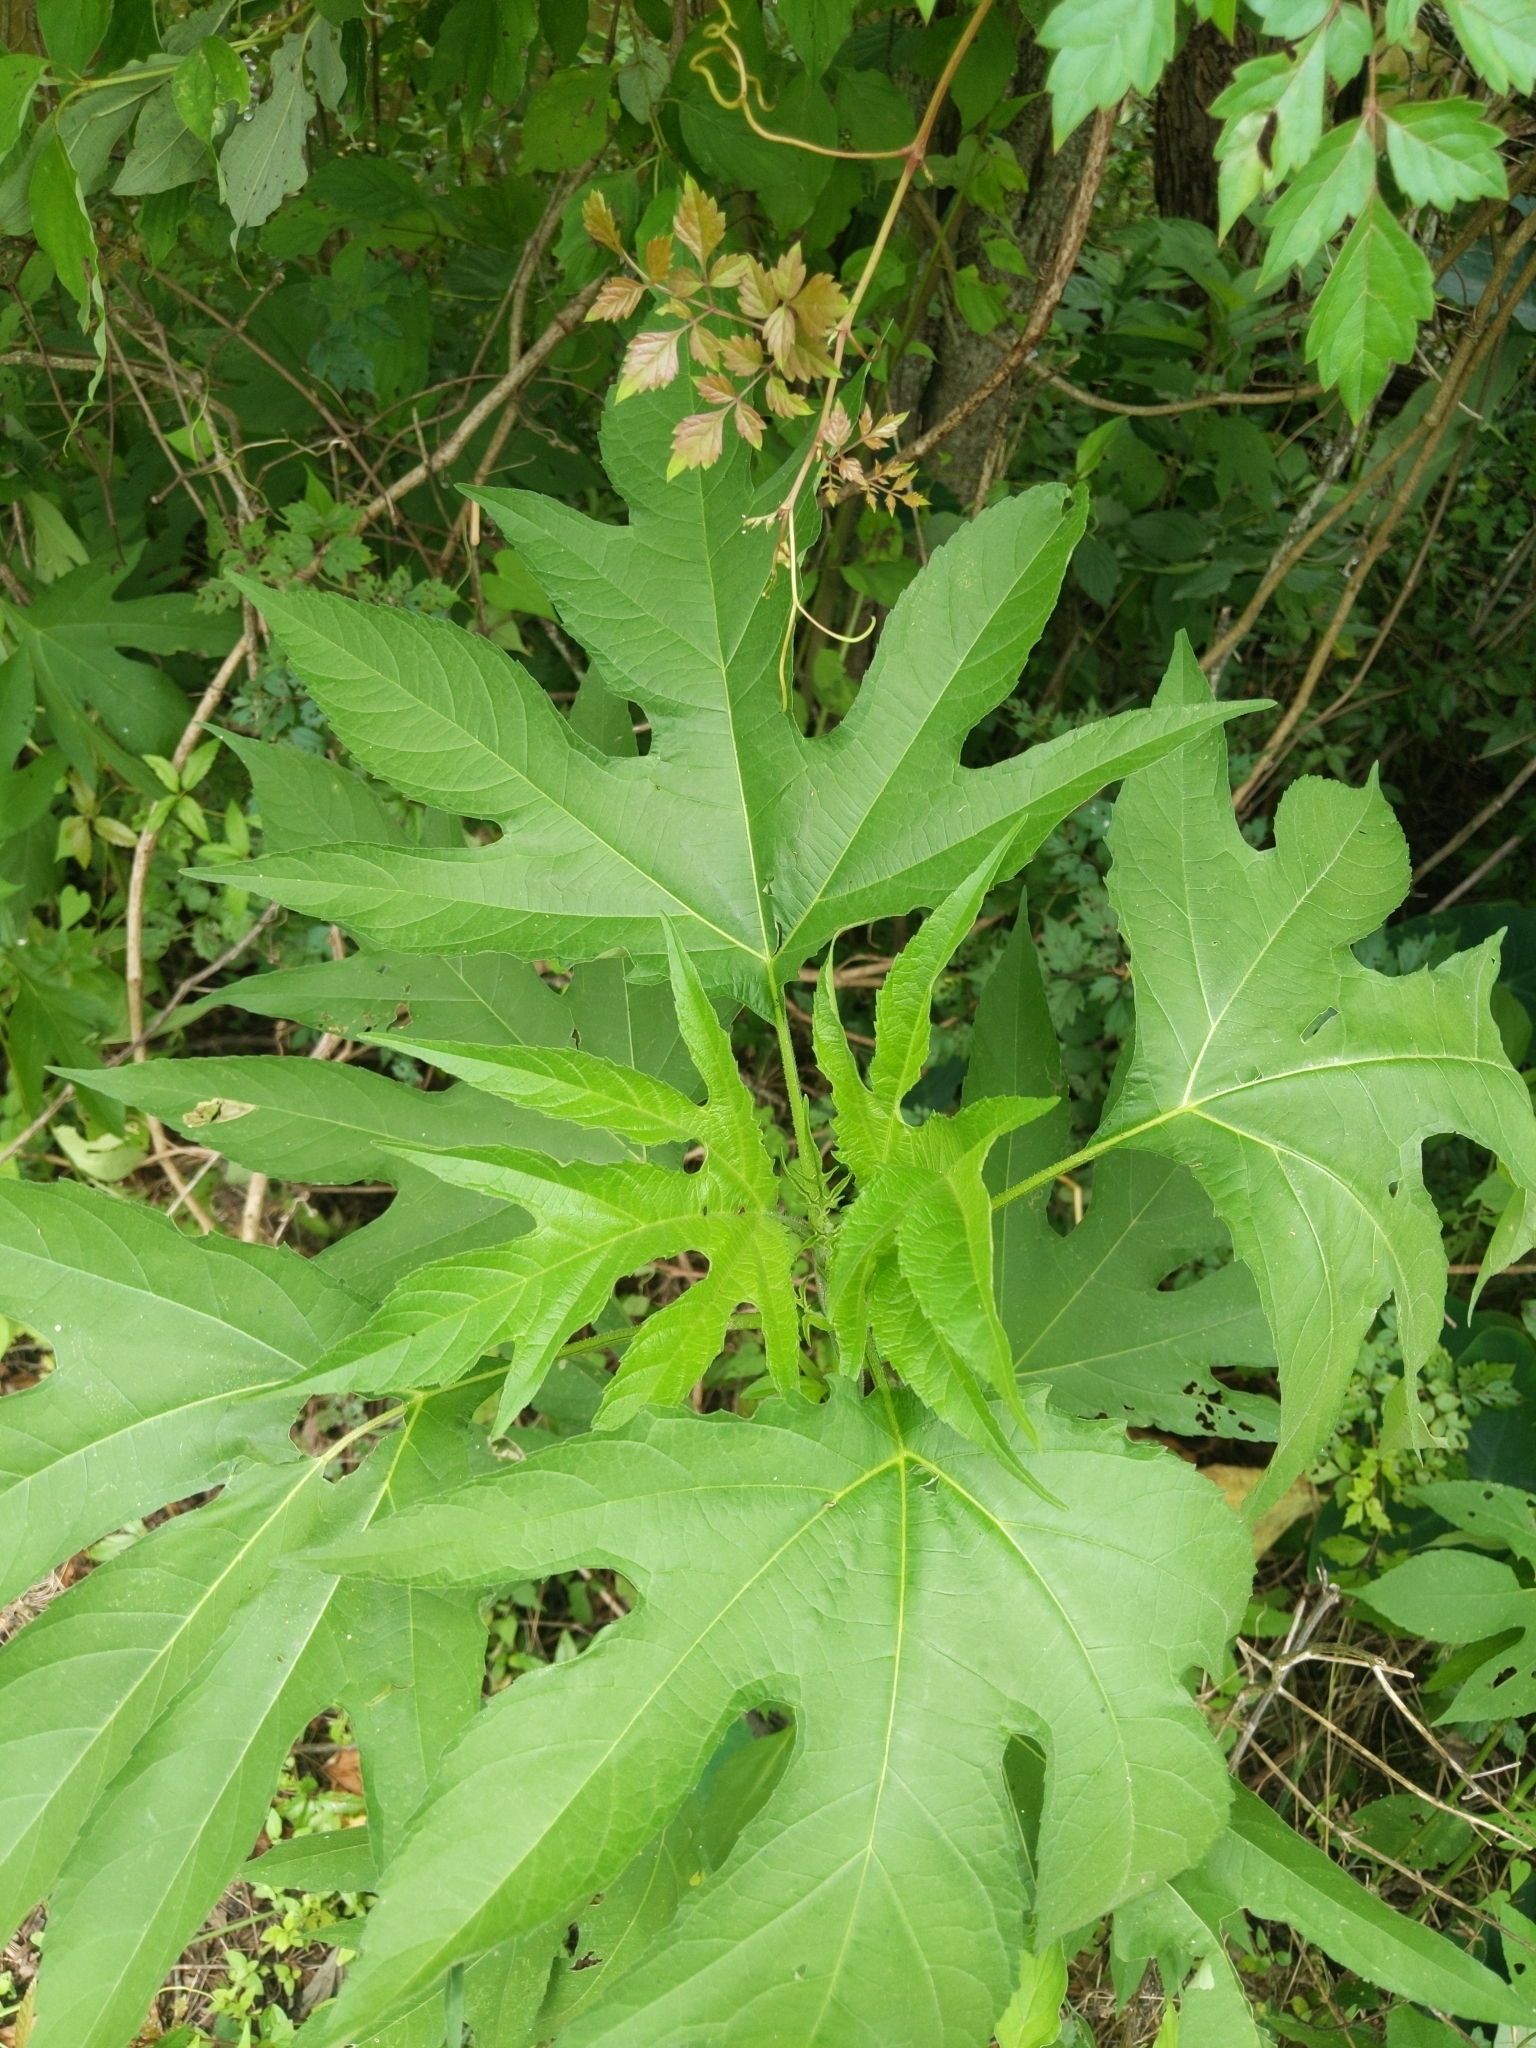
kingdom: Plantae
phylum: Tracheophyta
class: Magnoliopsida
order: Asterales
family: Asteraceae
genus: Ambrosia
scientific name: Ambrosia trifida
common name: Giant ragweed
